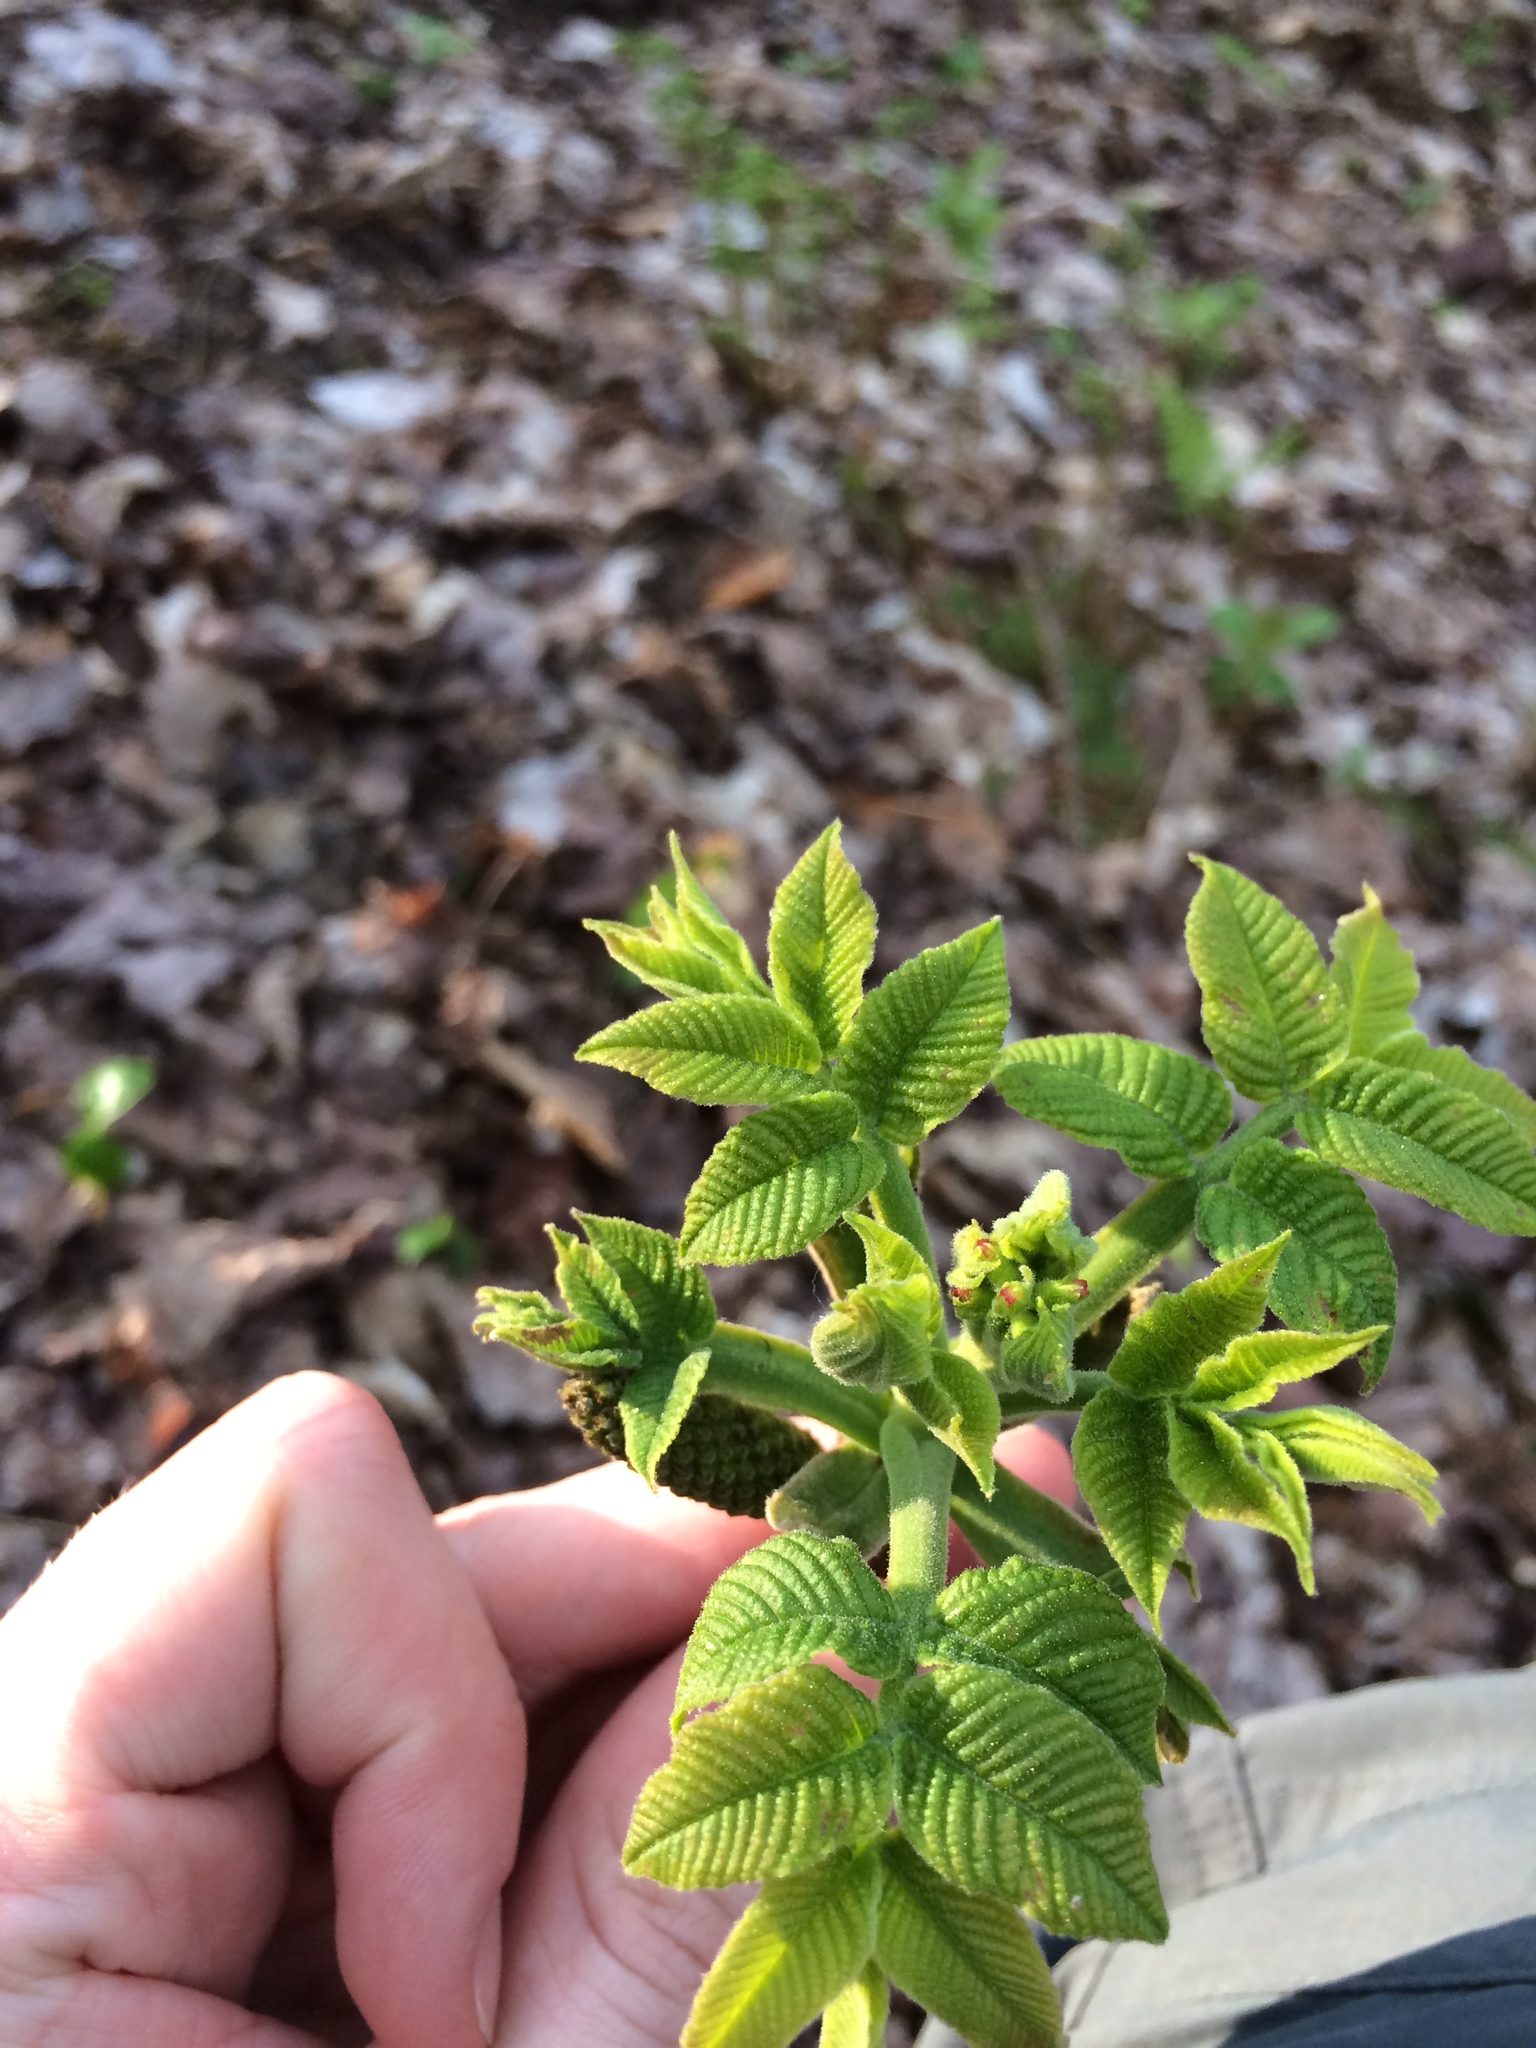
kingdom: Plantae
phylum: Tracheophyta
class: Magnoliopsida
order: Fagales
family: Juglandaceae
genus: Juglans
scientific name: Juglans cinerea
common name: Butternut
